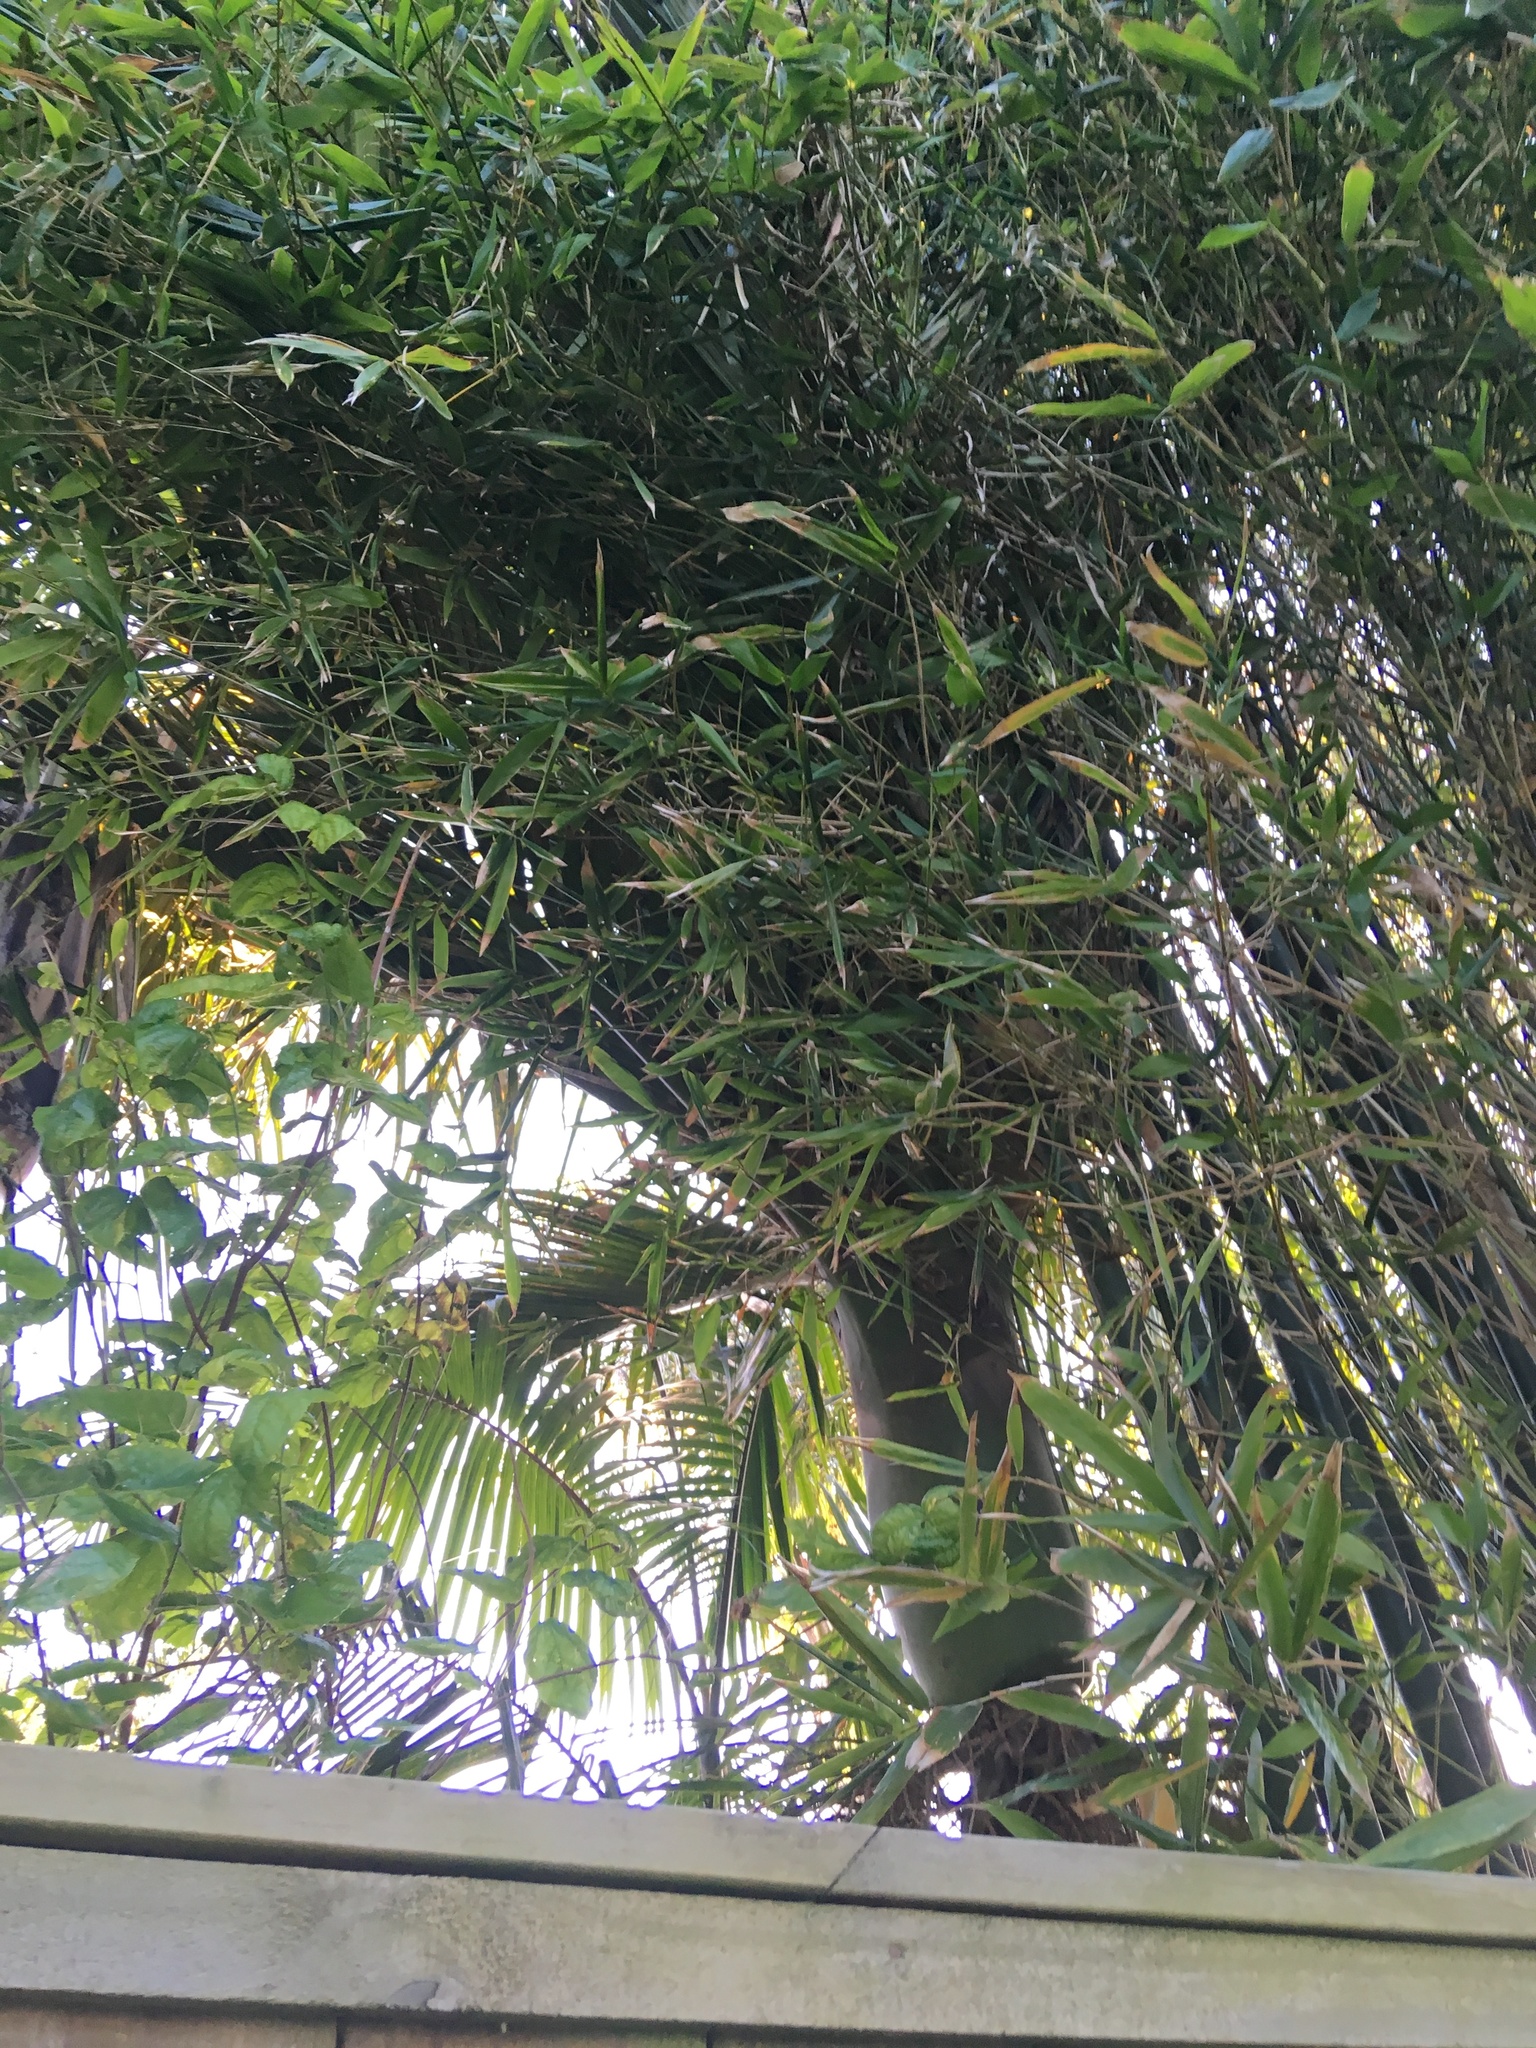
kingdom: Plantae
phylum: Tracheophyta
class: Liliopsida
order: Arecales
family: Arecaceae
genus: Rhopalostylis
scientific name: Rhopalostylis sapida
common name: Feather-duster palm
